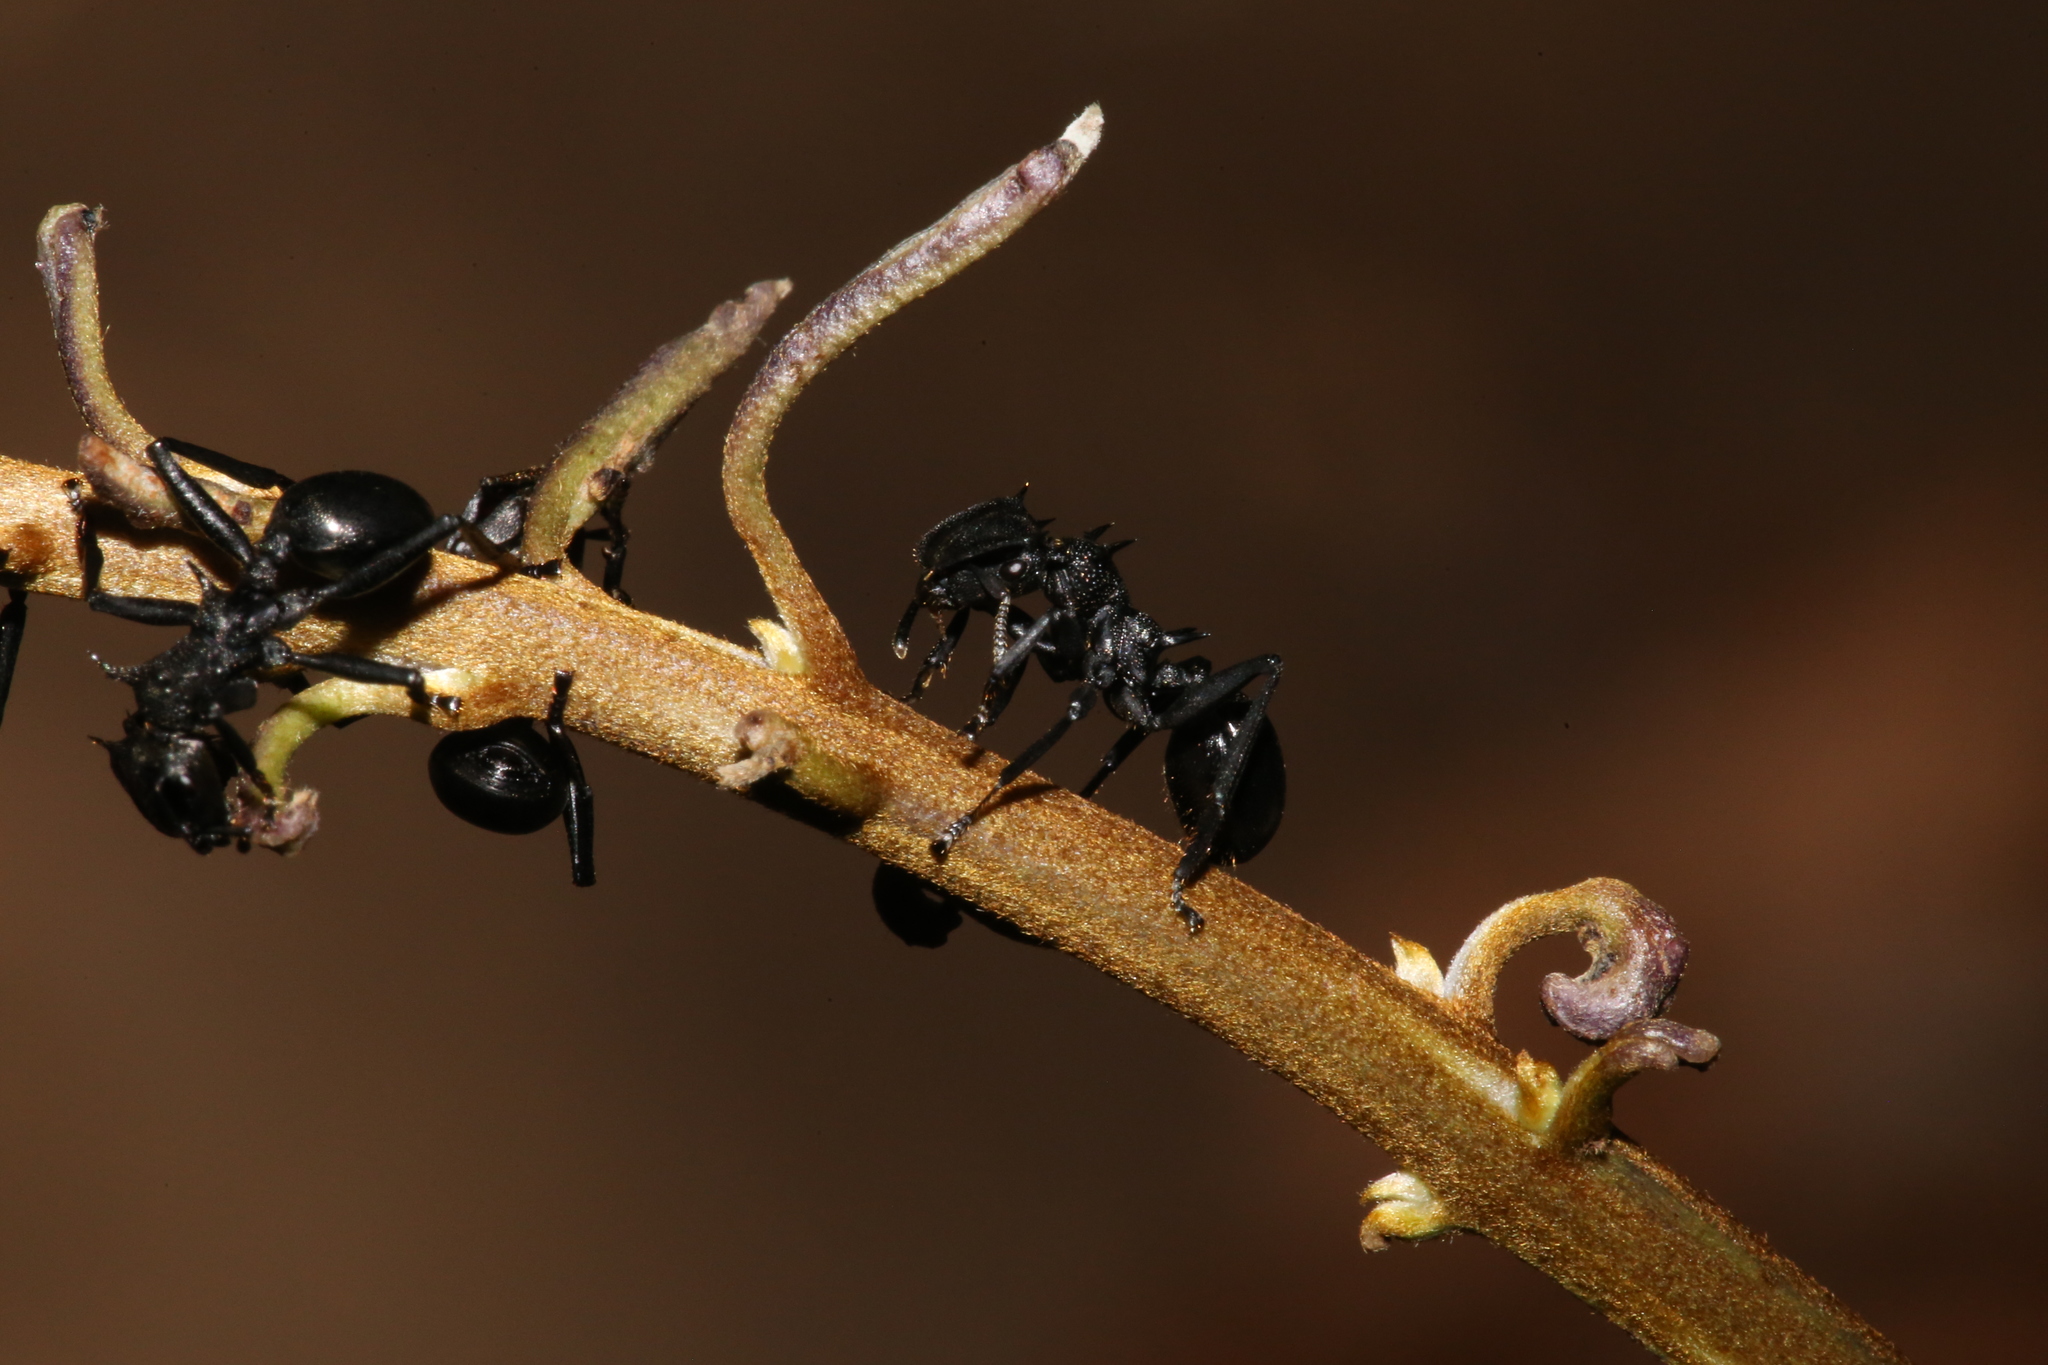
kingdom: Animalia
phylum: Arthropoda
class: Insecta
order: Hymenoptera
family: Formicidae
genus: Cephalotes
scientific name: Cephalotes atratus
